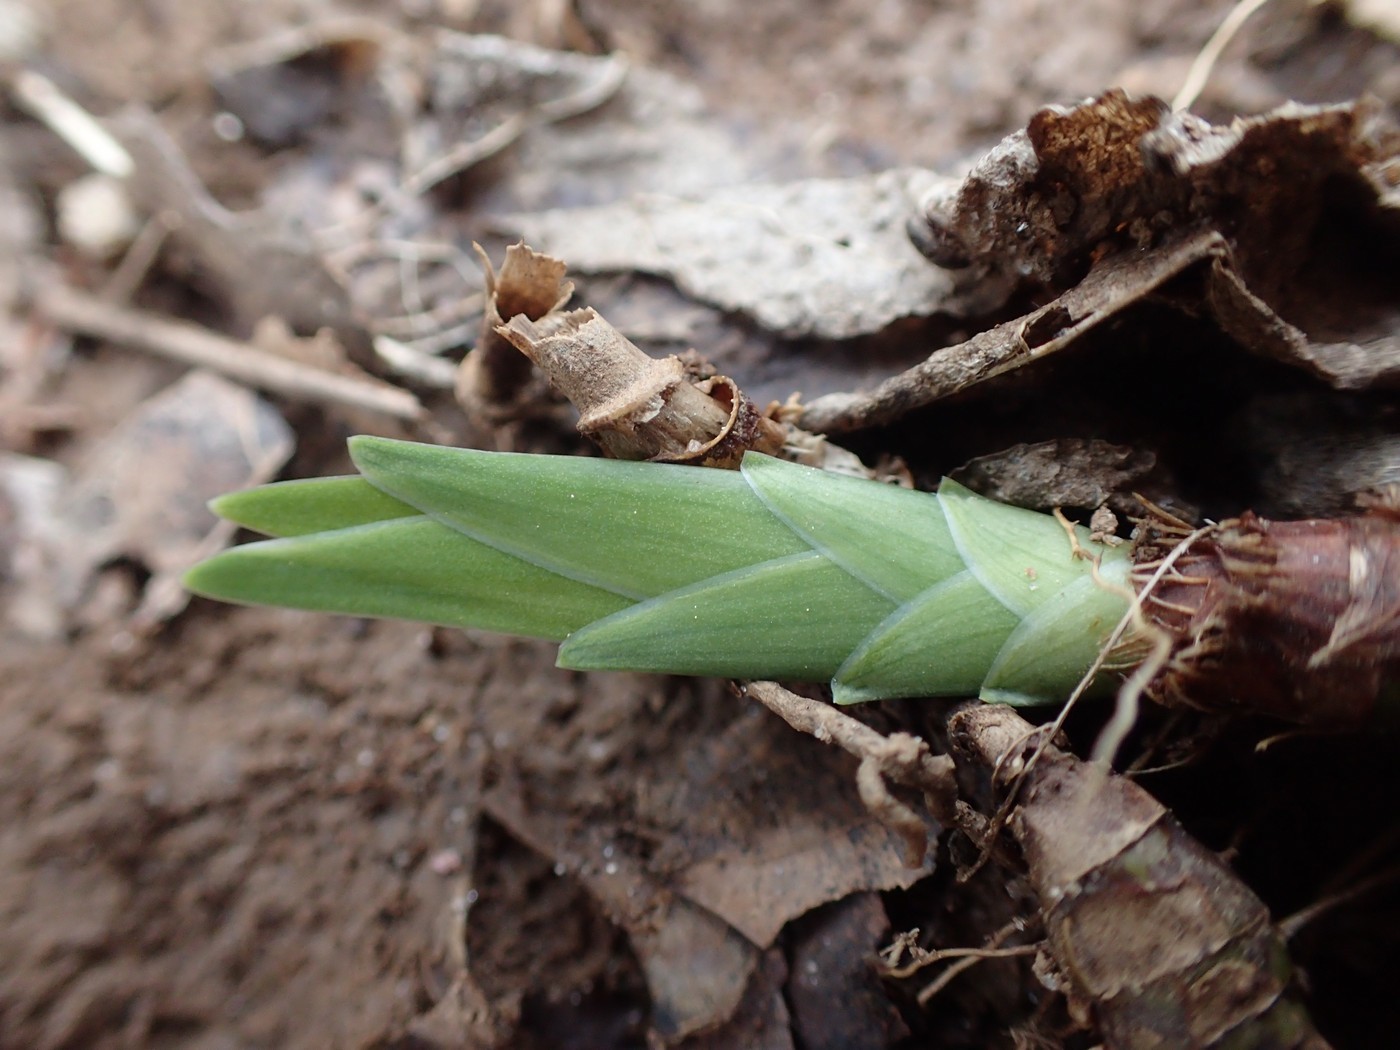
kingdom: Plantae
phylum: Tracheophyta
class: Liliopsida
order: Asparagales
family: Iridaceae
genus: Iris
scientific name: Iris cristata
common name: Crested iris
